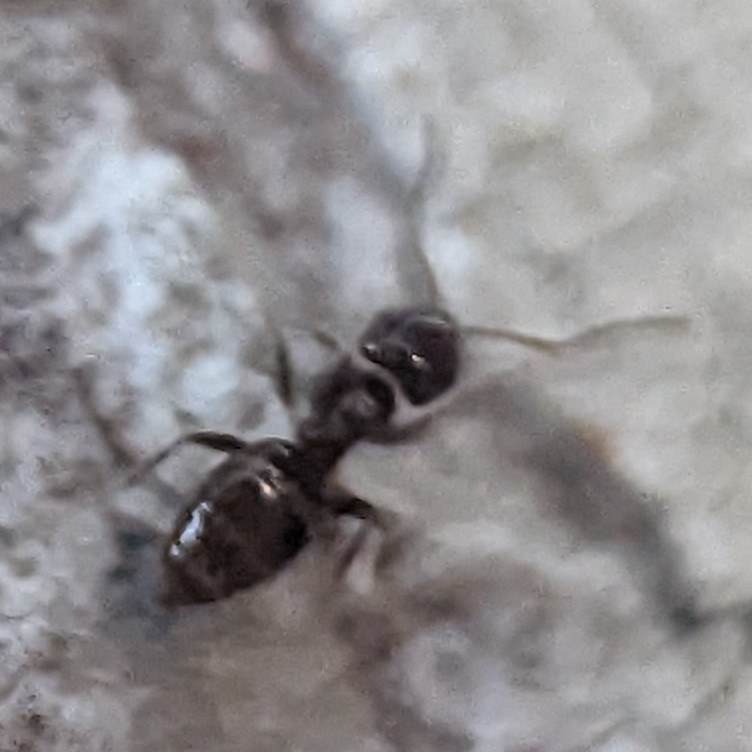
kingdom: Animalia
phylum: Arthropoda
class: Insecta
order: Hymenoptera
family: Formicidae
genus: Brachymyrmex
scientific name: Brachymyrmex patagonicus
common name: Dark rover ant
